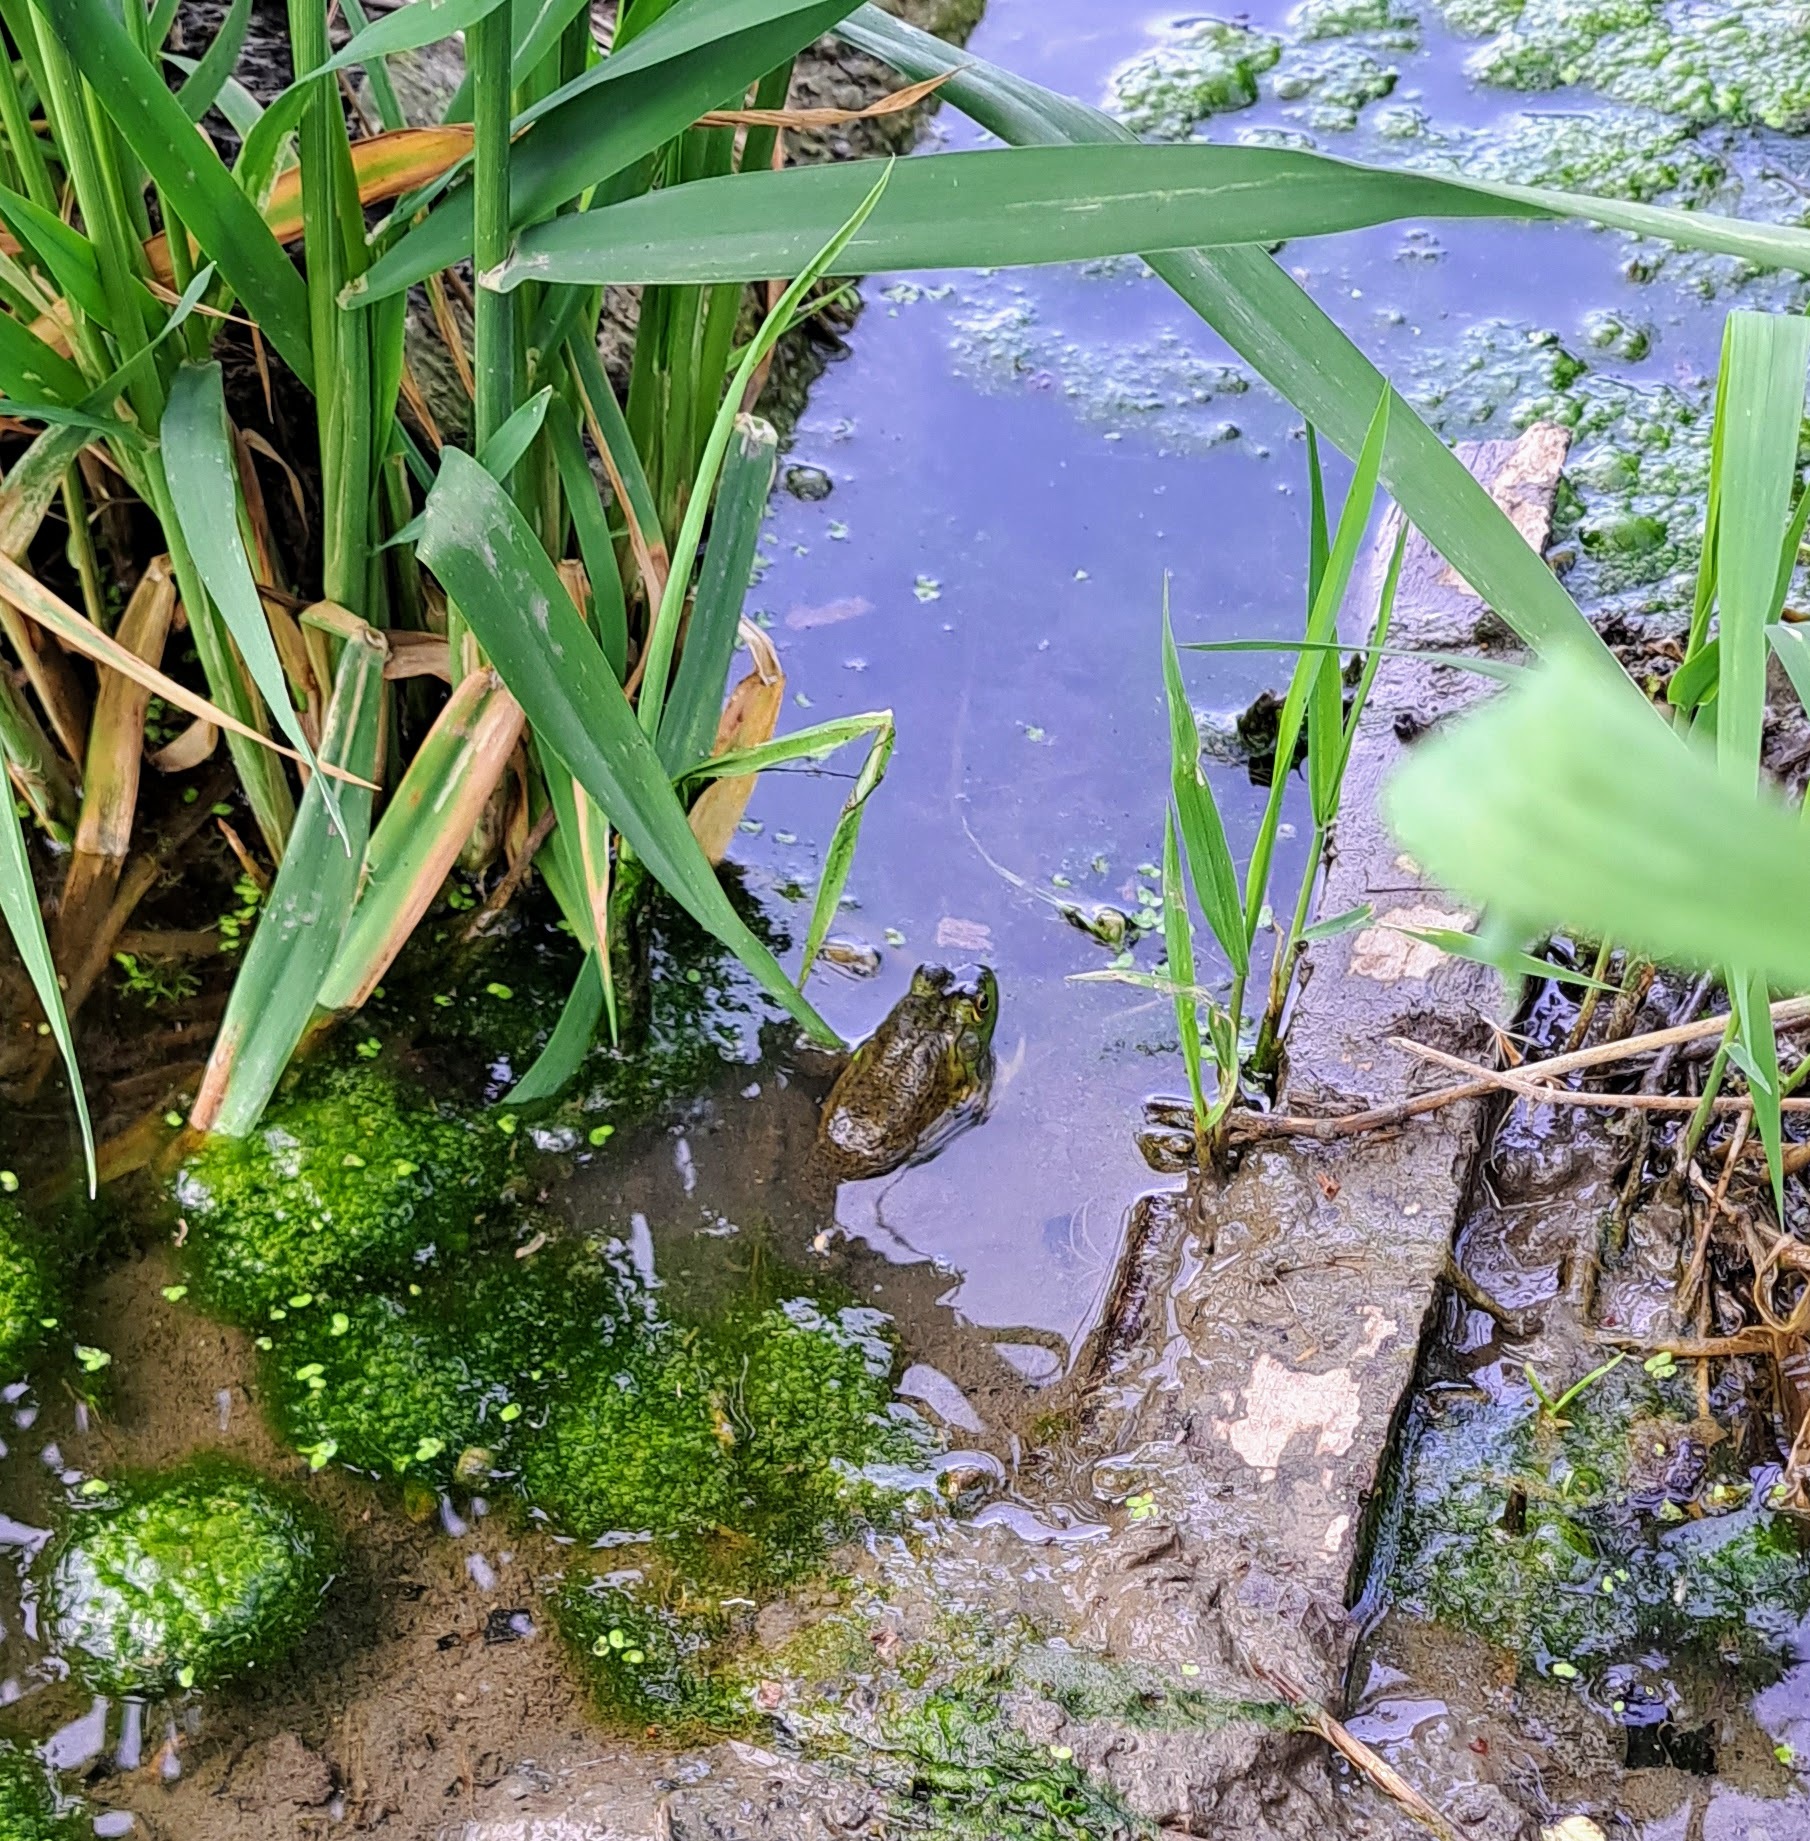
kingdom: Animalia
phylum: Chordata
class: Amphibia
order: Anura
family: Ranidae
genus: Lithobates
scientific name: Lithobates catesbeianus
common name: American bullfrog
